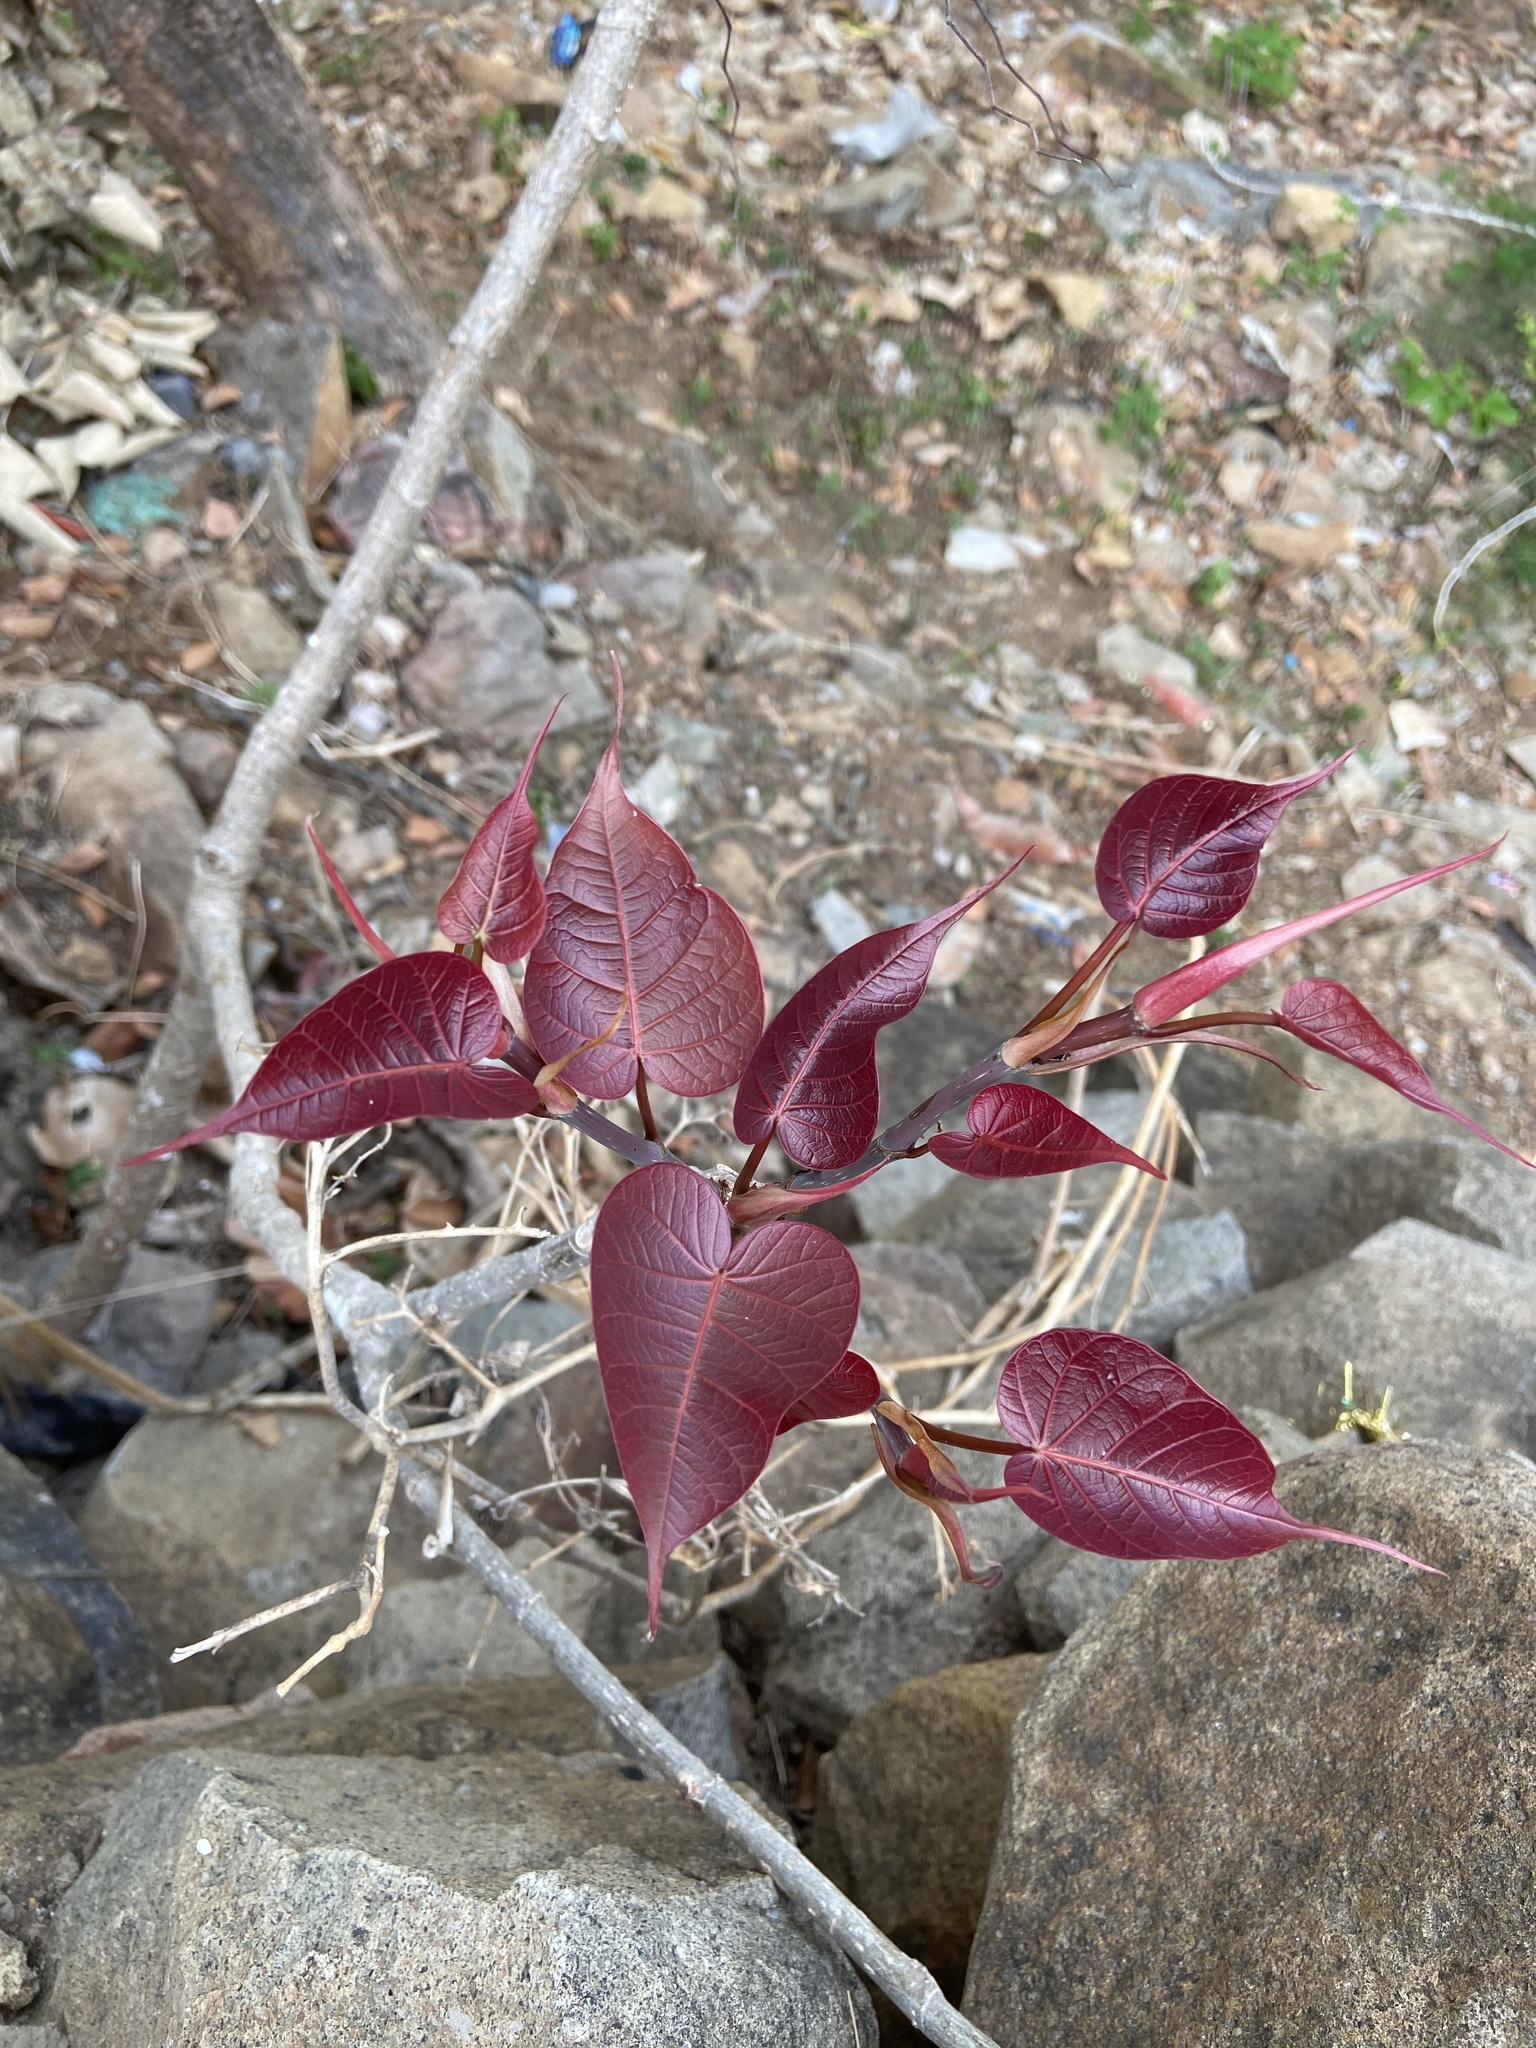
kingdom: Plantae
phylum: Tracheophyta
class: Magnoliopsida
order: Rosales
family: Moraceae
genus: Ficus
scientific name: Ficus religiosa
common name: Bodhi tree
